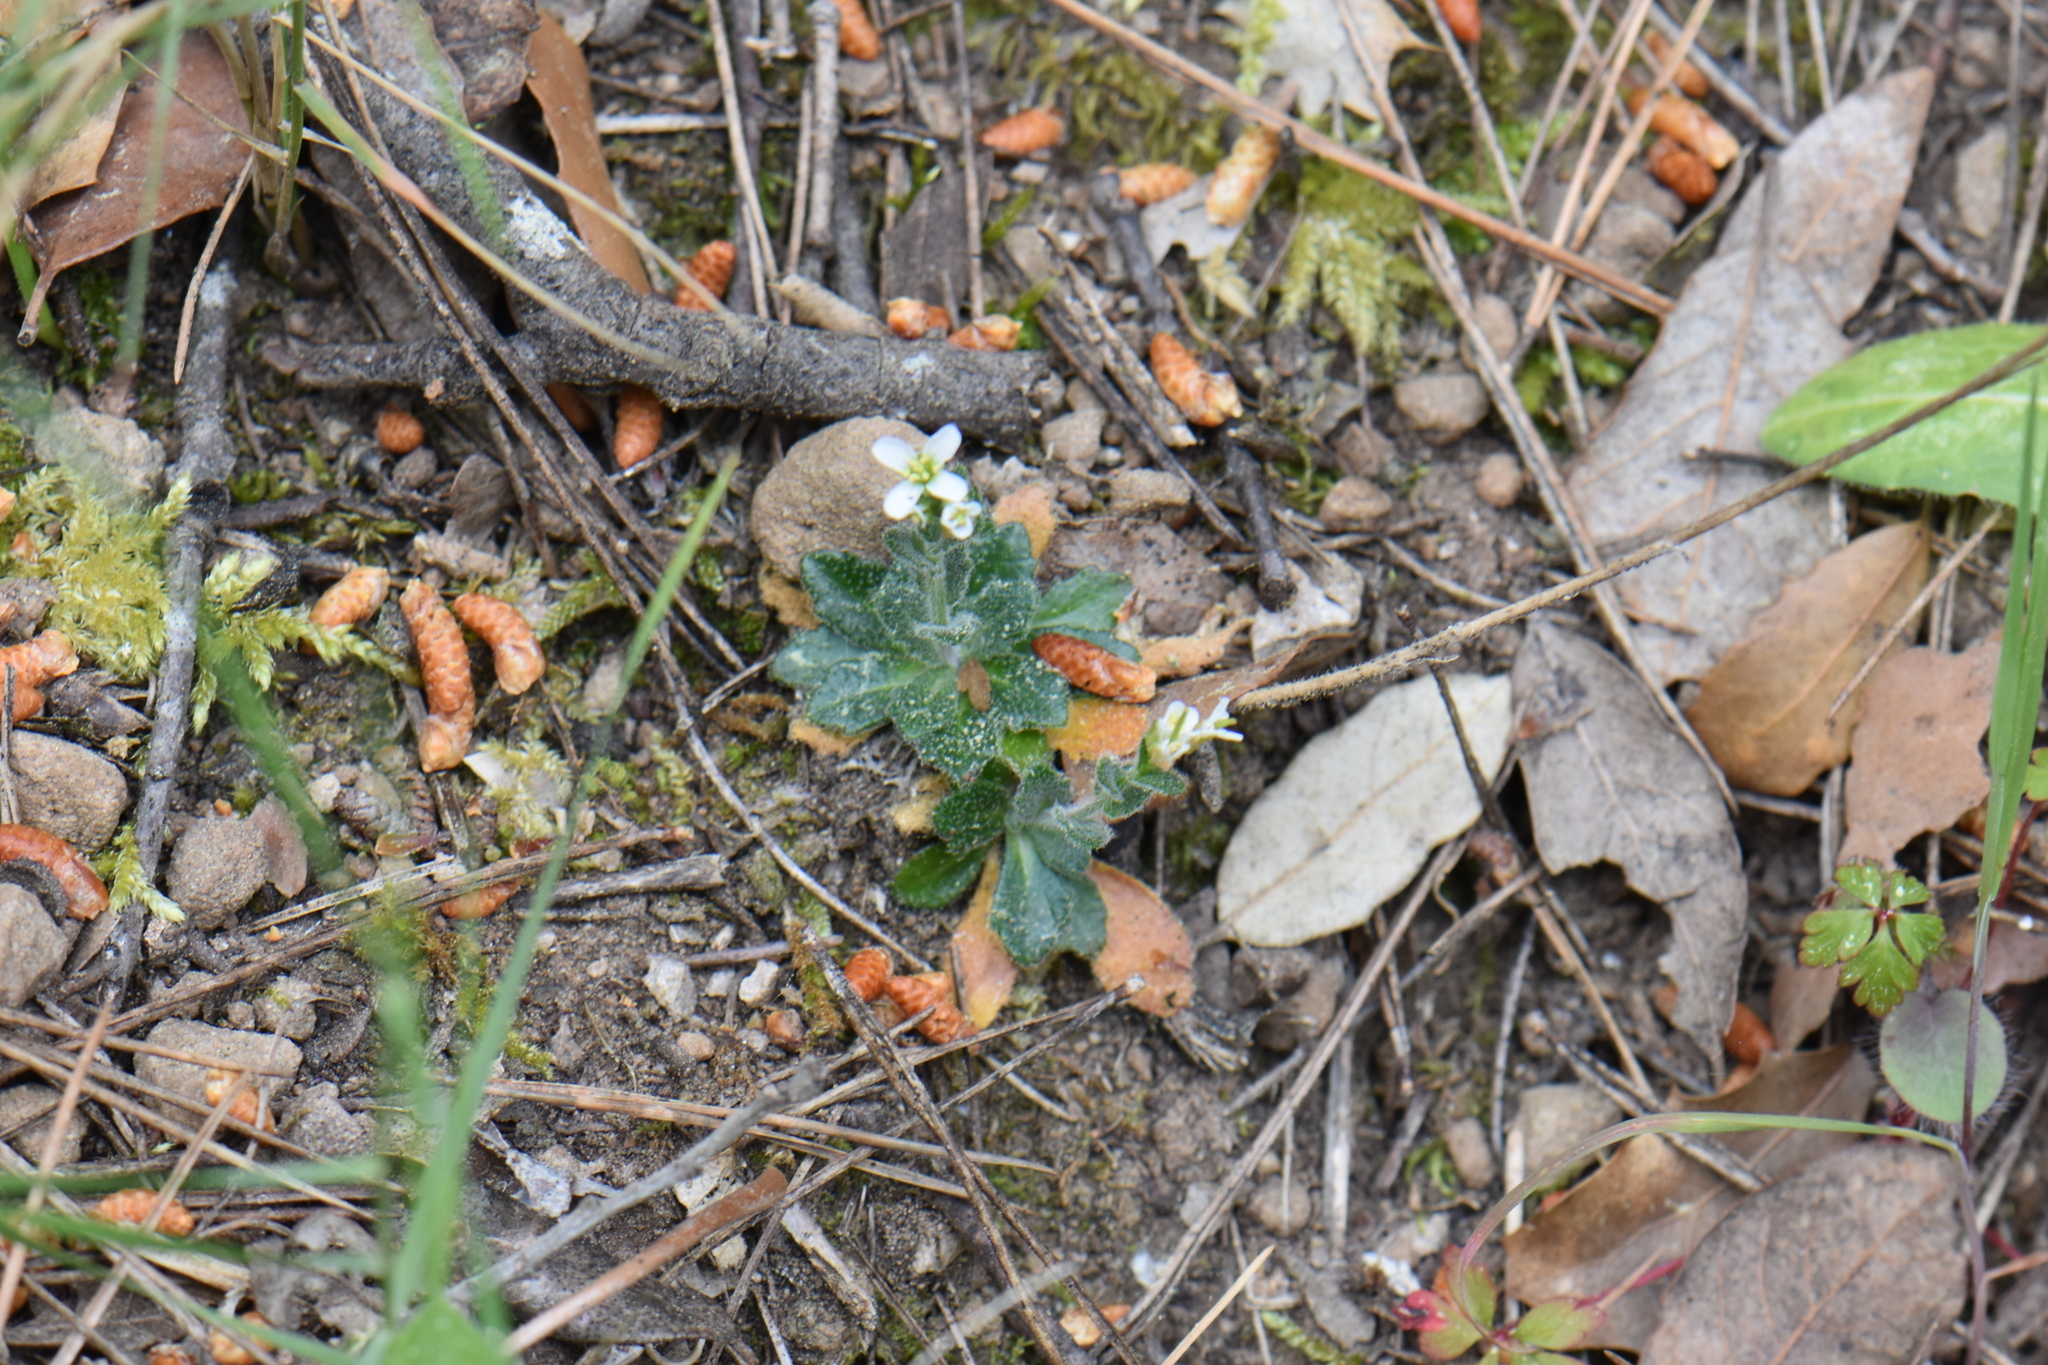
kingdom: Plantae
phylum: Tracheophyta
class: Magnoliopsida
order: Brassicales
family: Brassicaceae
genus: Arabis
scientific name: Arabis hirsuta
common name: Hairy rock-cress
